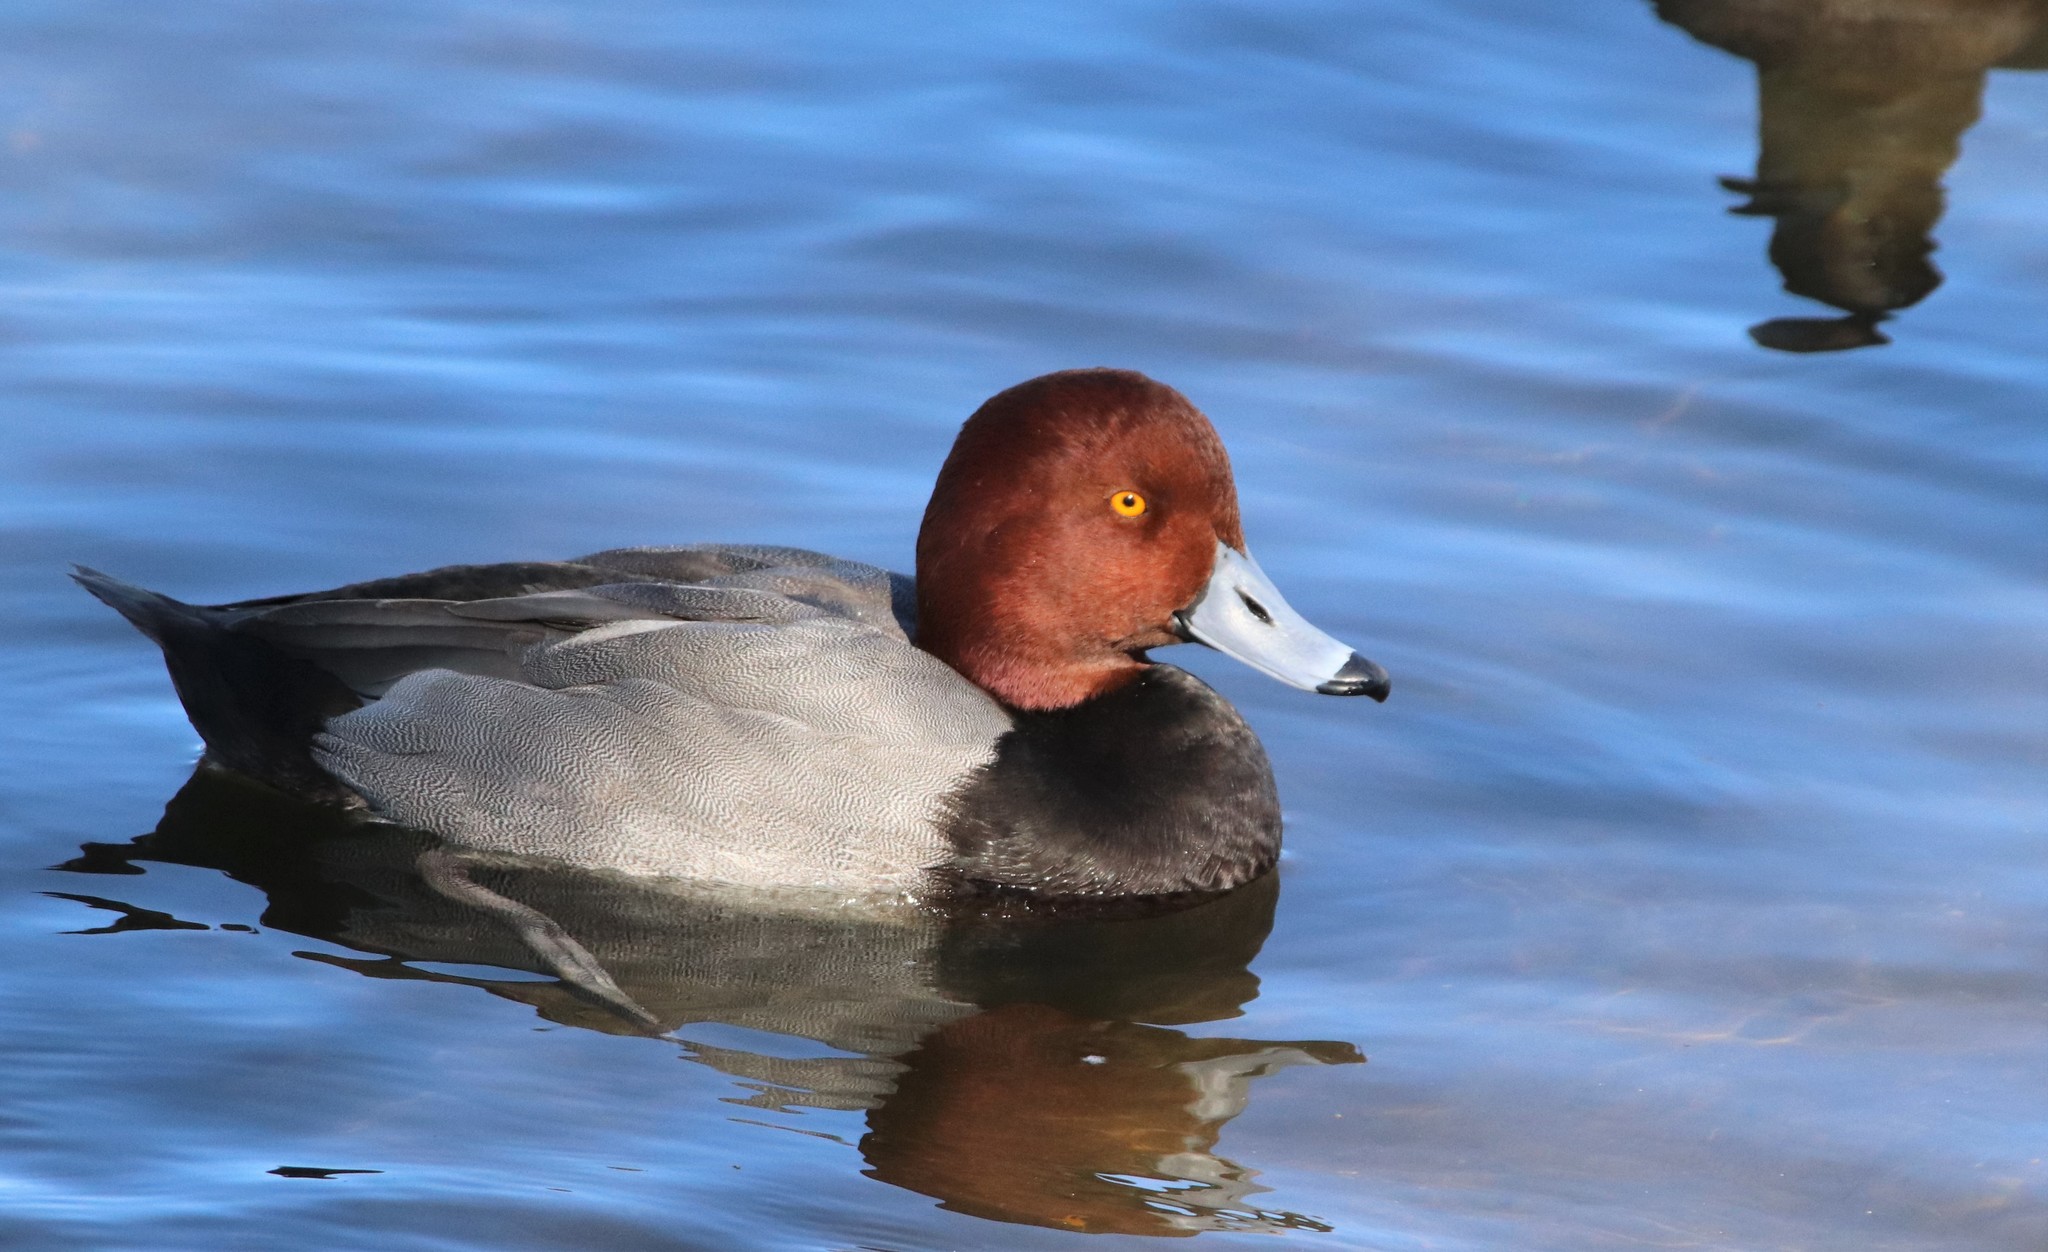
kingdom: Animalia
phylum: Chordata
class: Aves
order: Anseriformes
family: Anatidae
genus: Aythya
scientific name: Aythya americana
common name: Redhead
